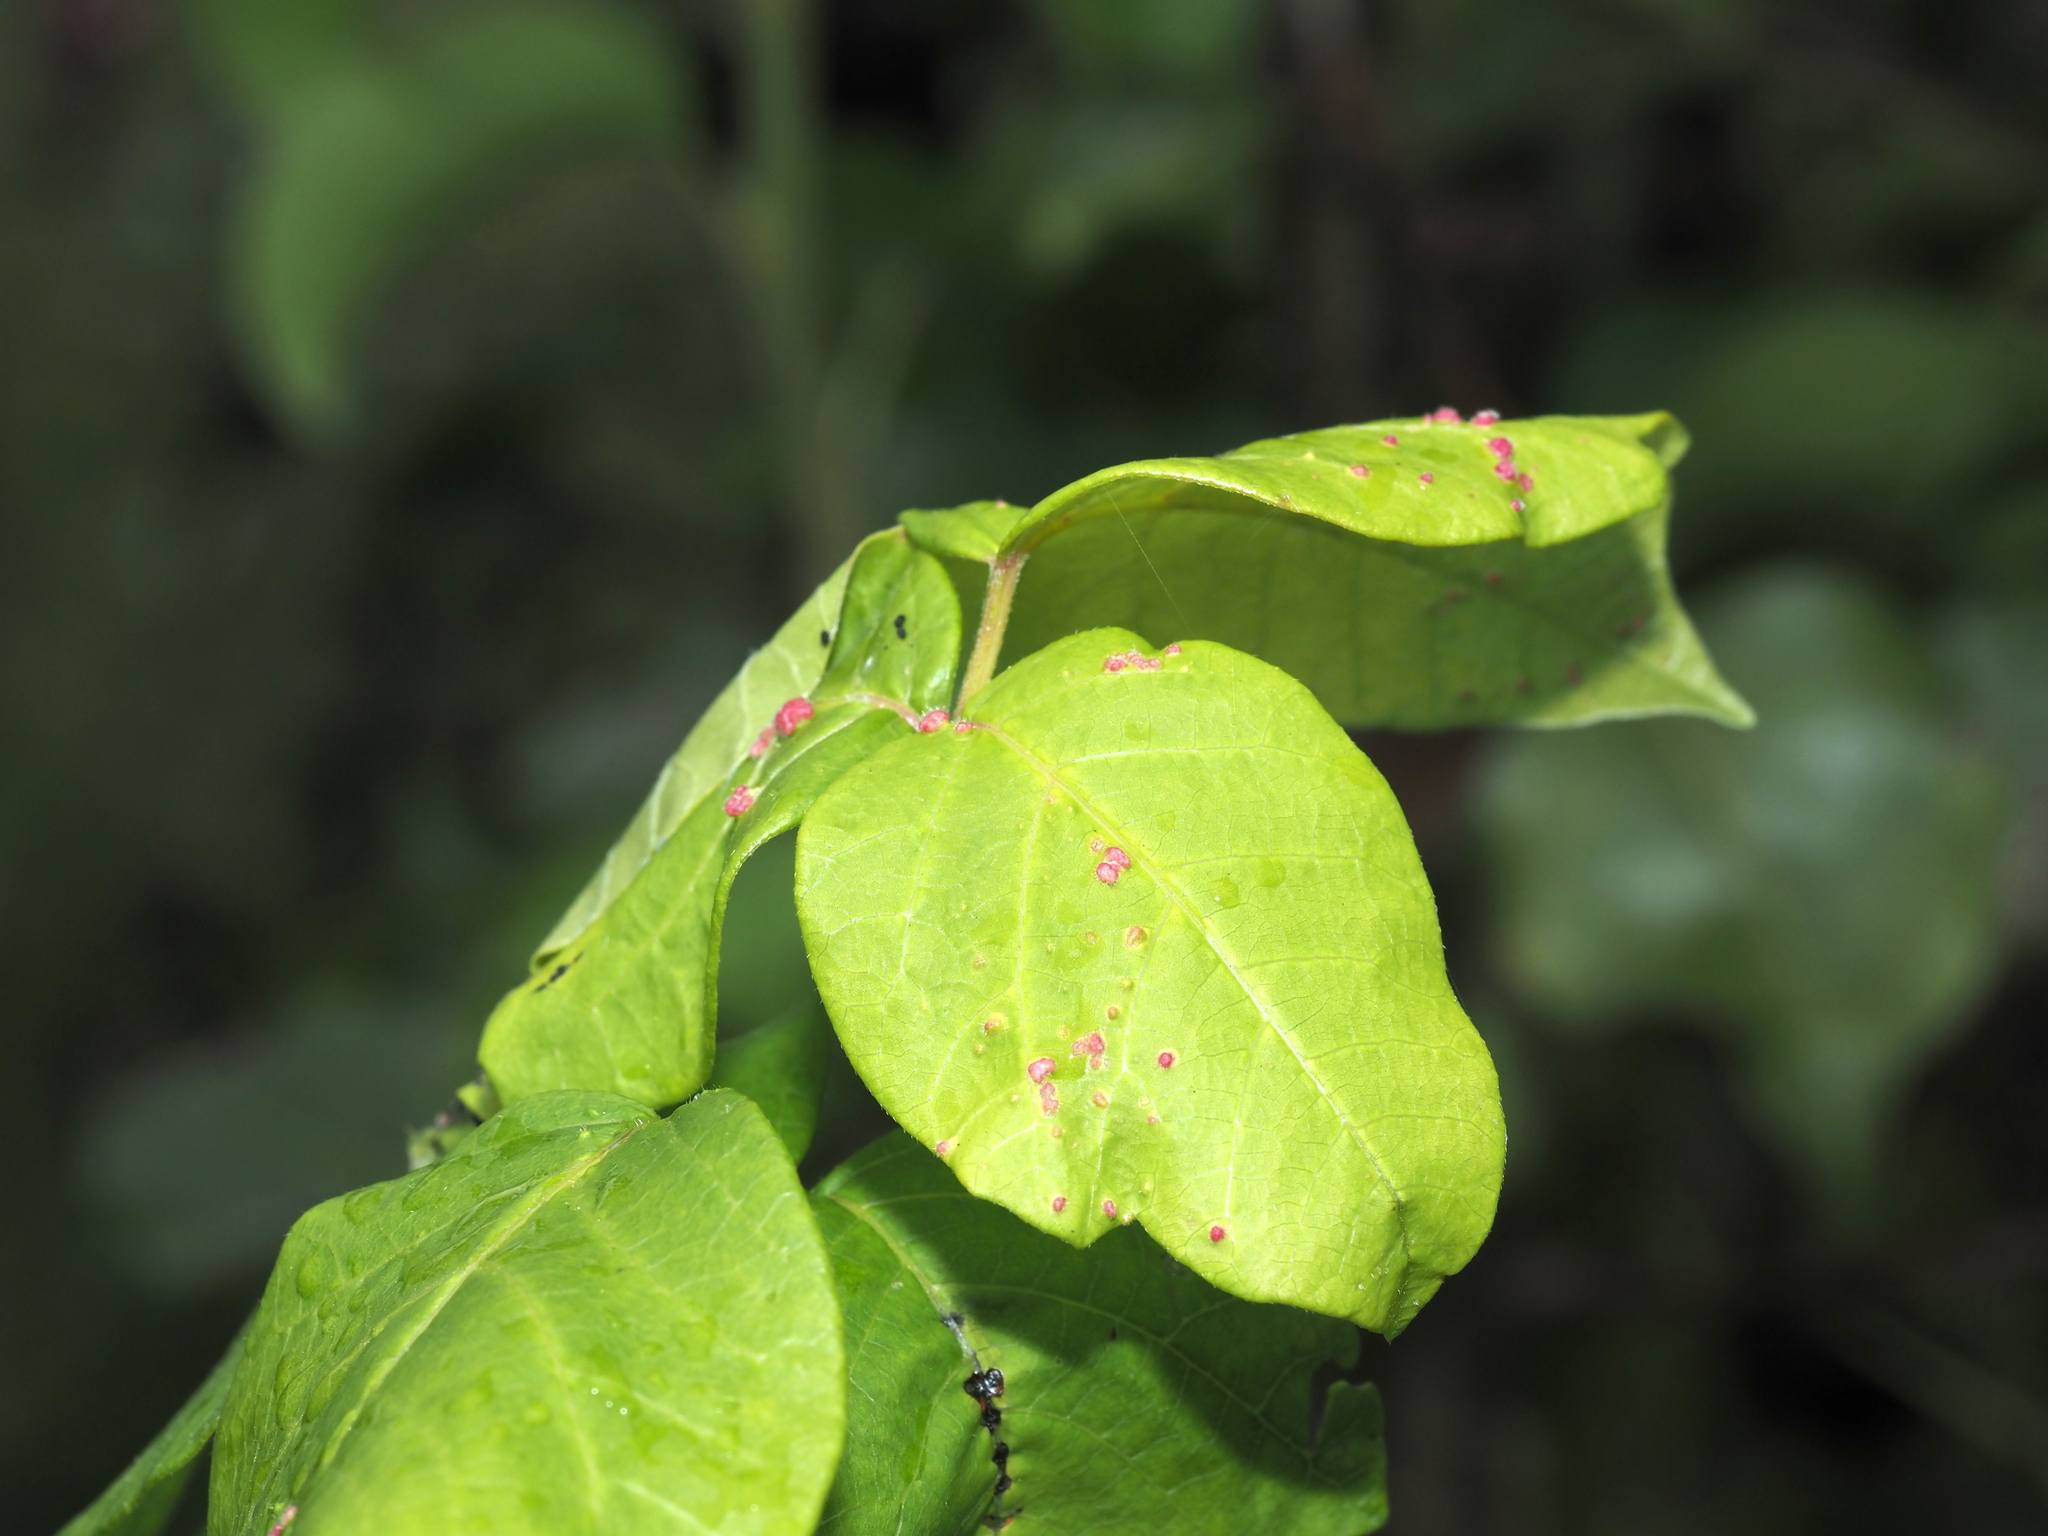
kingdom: Animalia
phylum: Arthropoda
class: Arachnida
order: Trombidiformes
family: Eriophyidae
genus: Aculops
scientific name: Aculops
